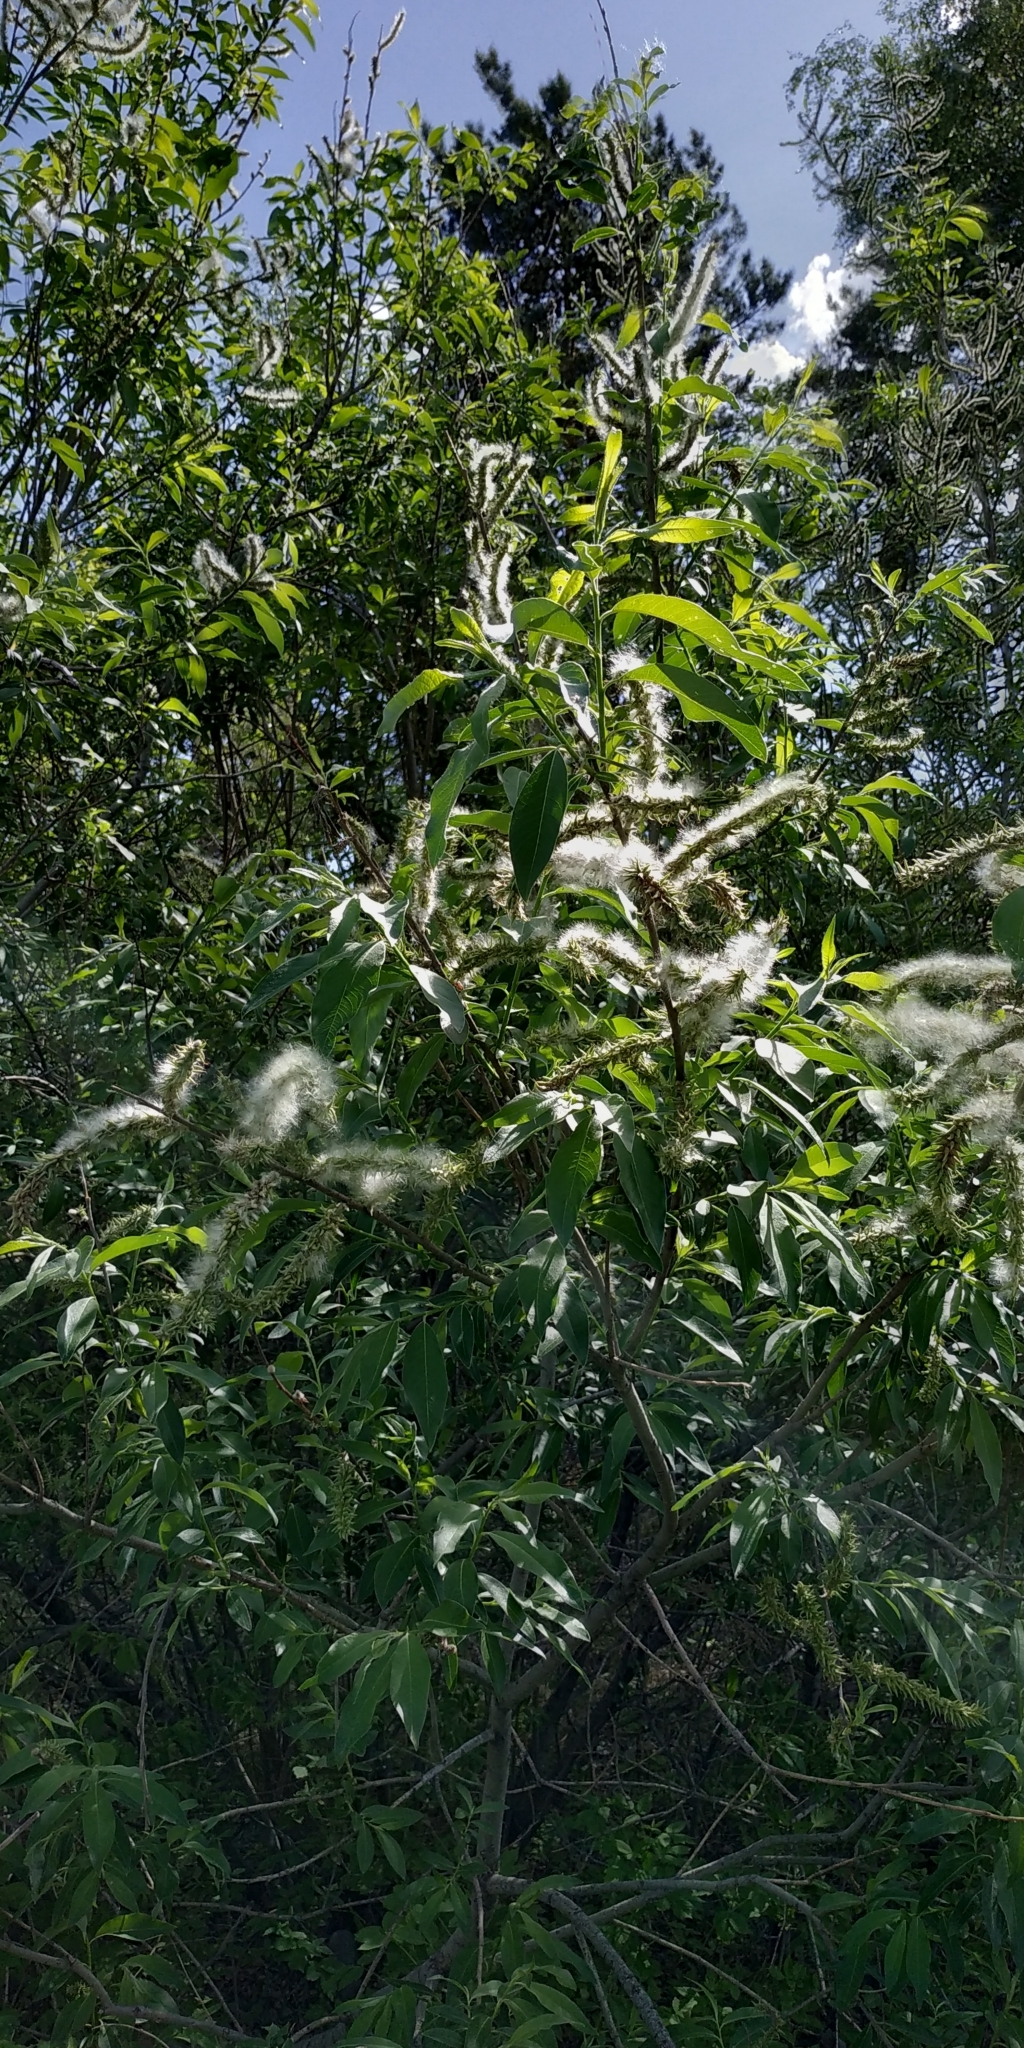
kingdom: Plantae
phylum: Tracheophyta
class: Magnoliopsida
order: Malpighiales
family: Salicaceae
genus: Salix
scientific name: Salix caprea
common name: Goat willow
